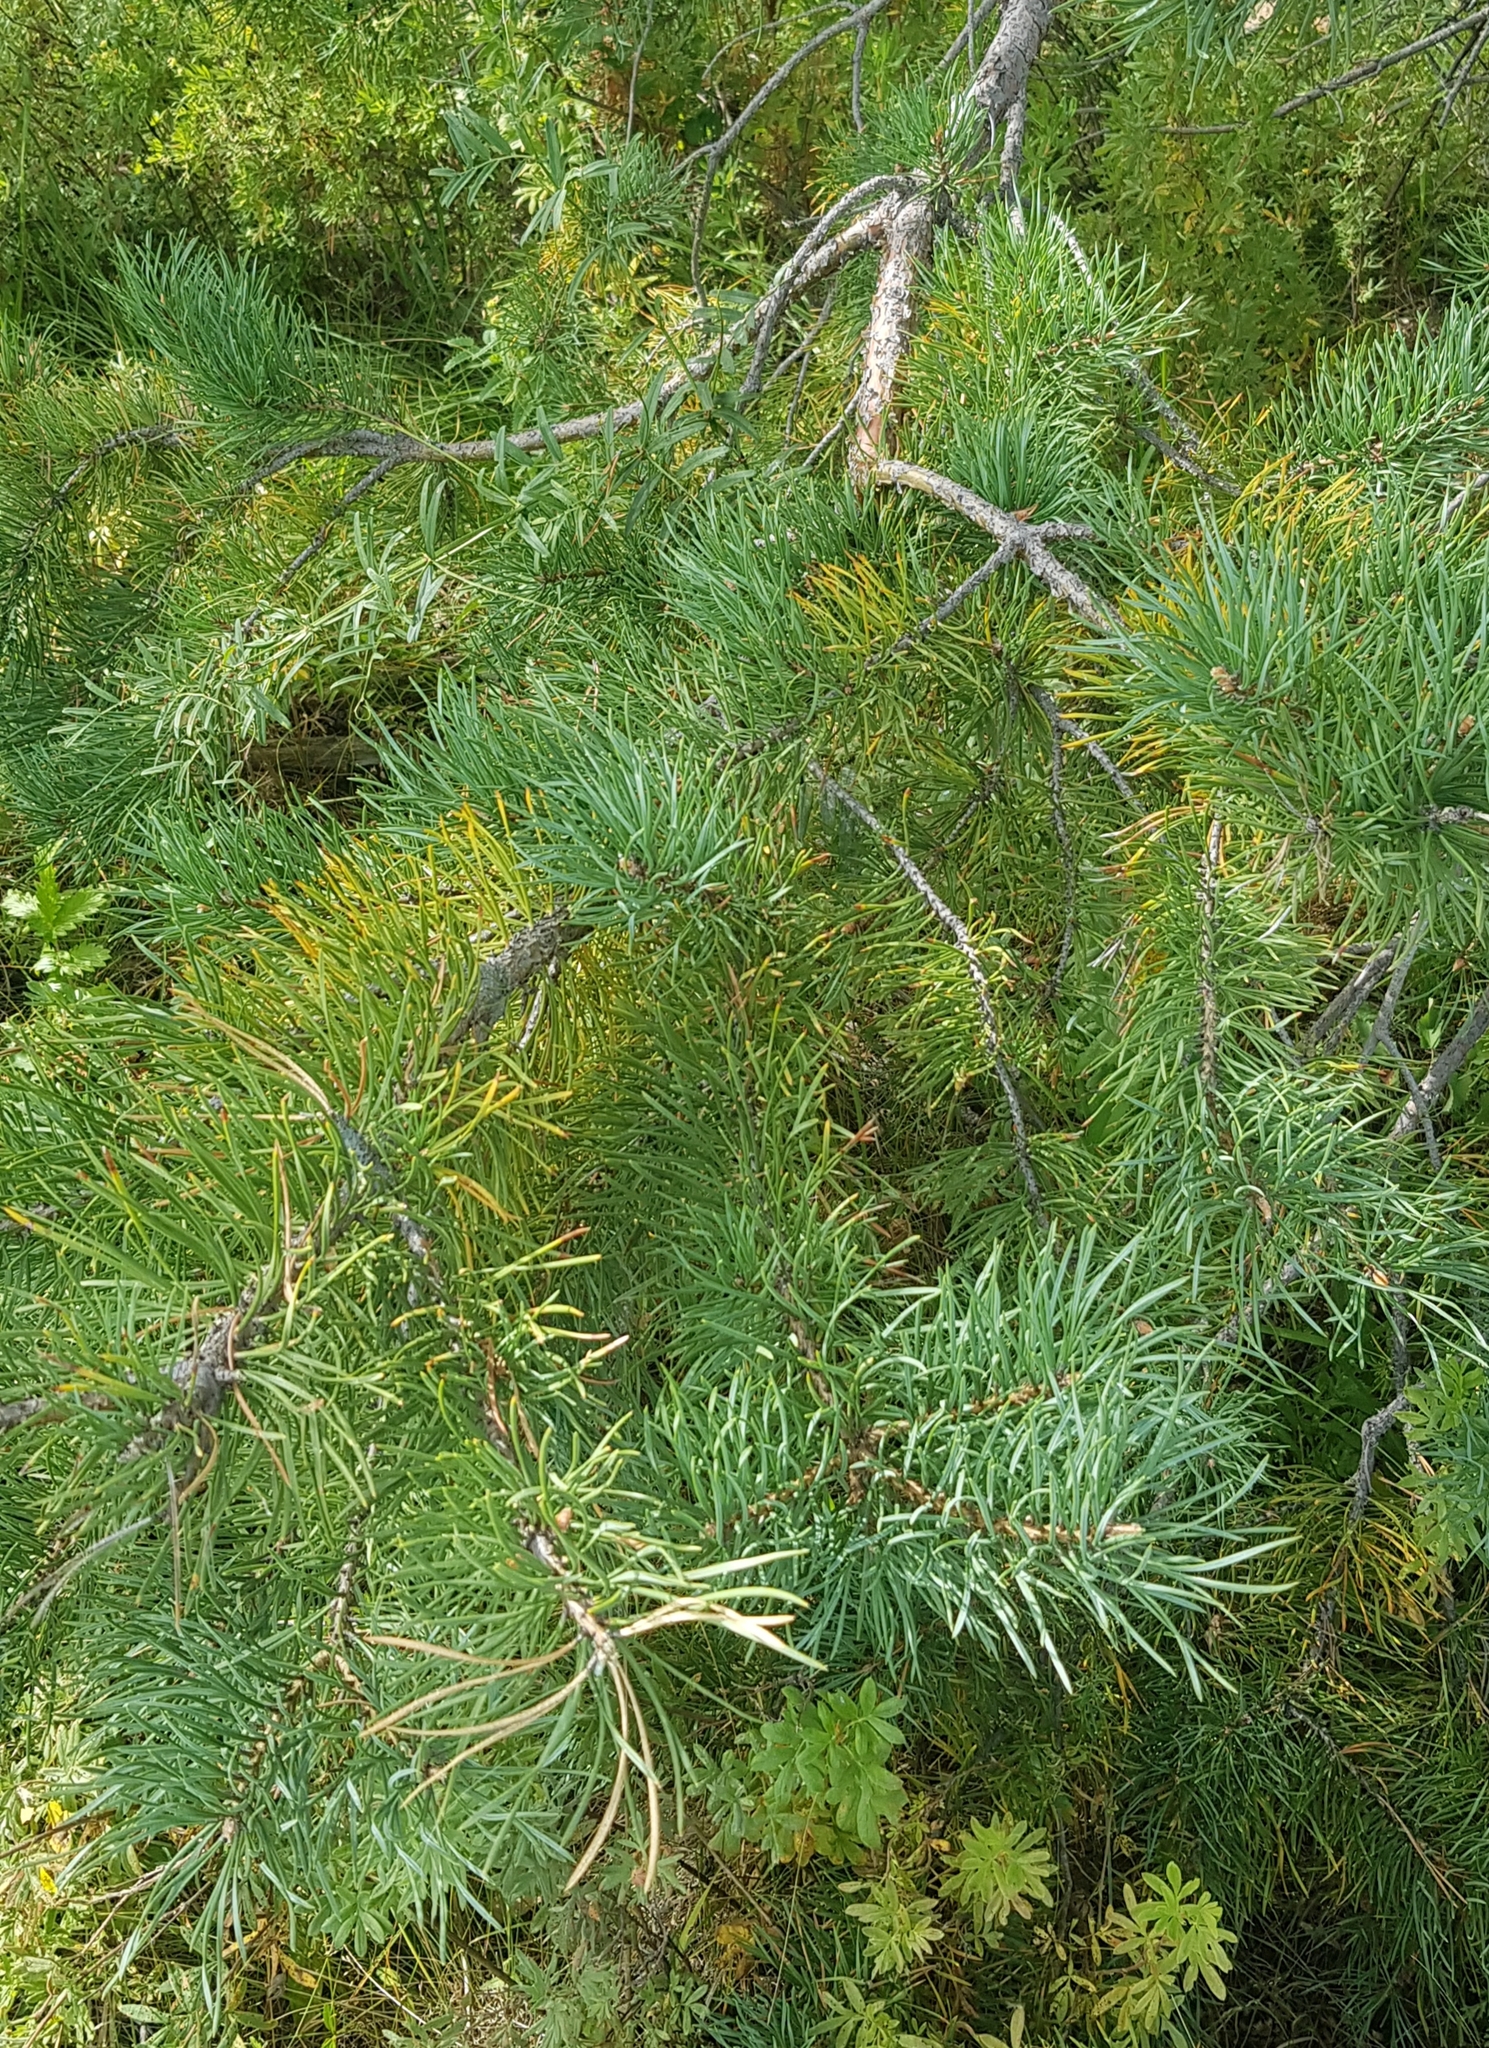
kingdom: Plantae
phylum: Tracheophyta
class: Pinopsida
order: Pinales
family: Pinaceae
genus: Pinus
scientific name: Pinus sylvestris
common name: Scots pine
